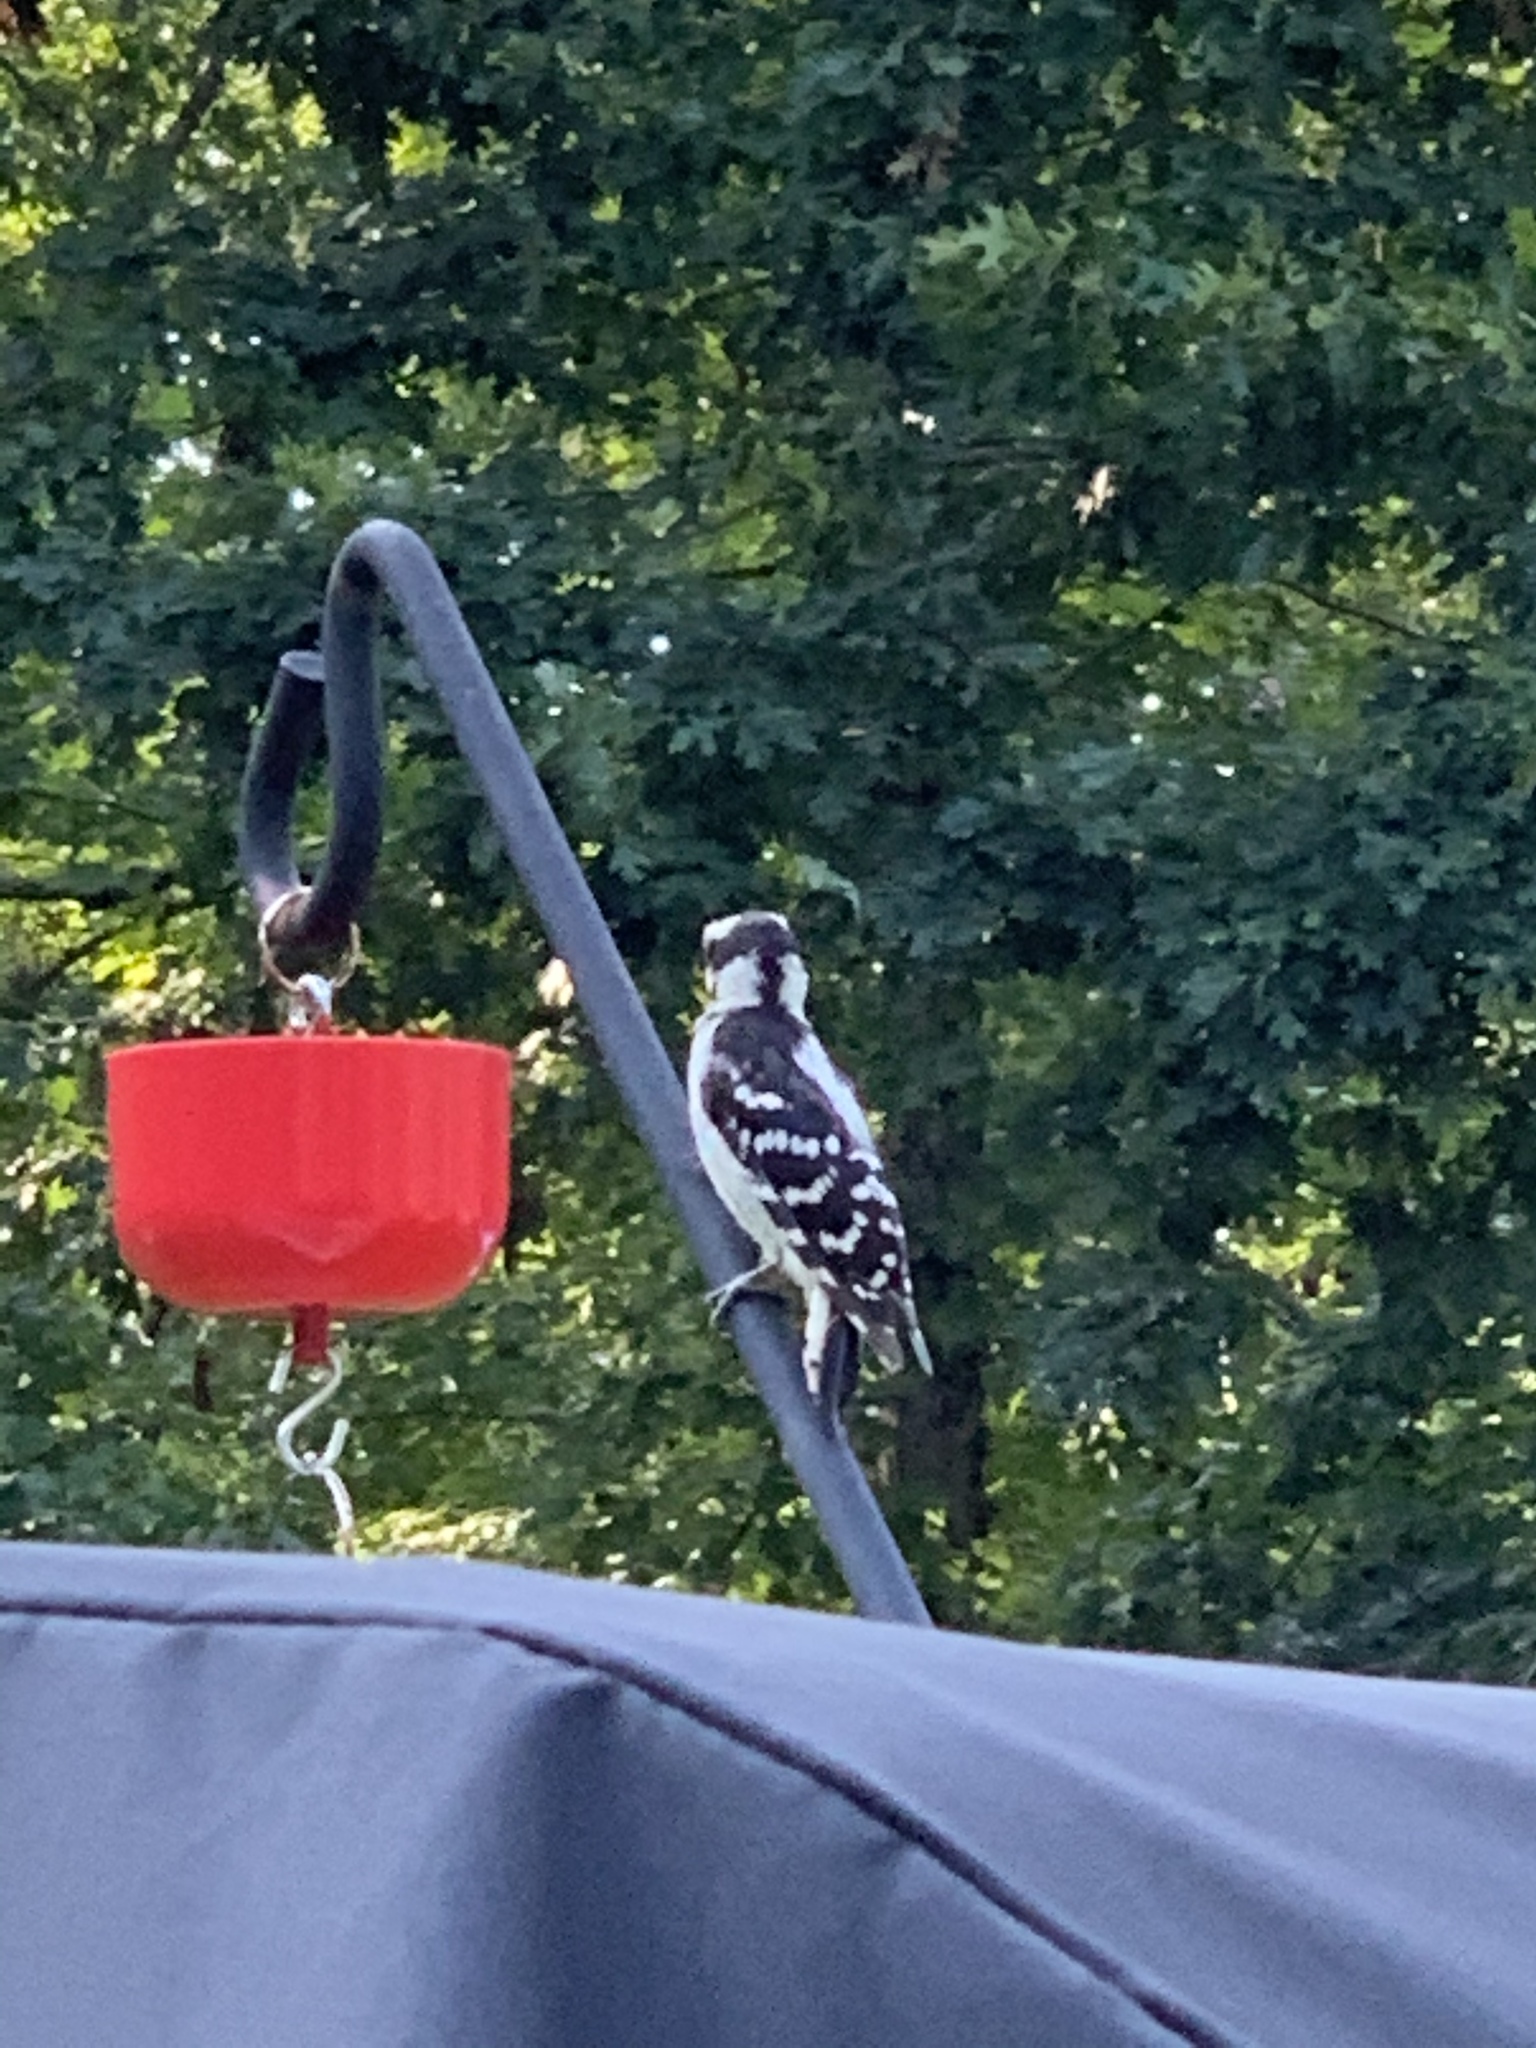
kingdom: Animalia
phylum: Chordata
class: Aves
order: Piciformes
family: Picidae
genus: Dryobates
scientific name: Dryobates pubescens
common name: Downy woodpecker
